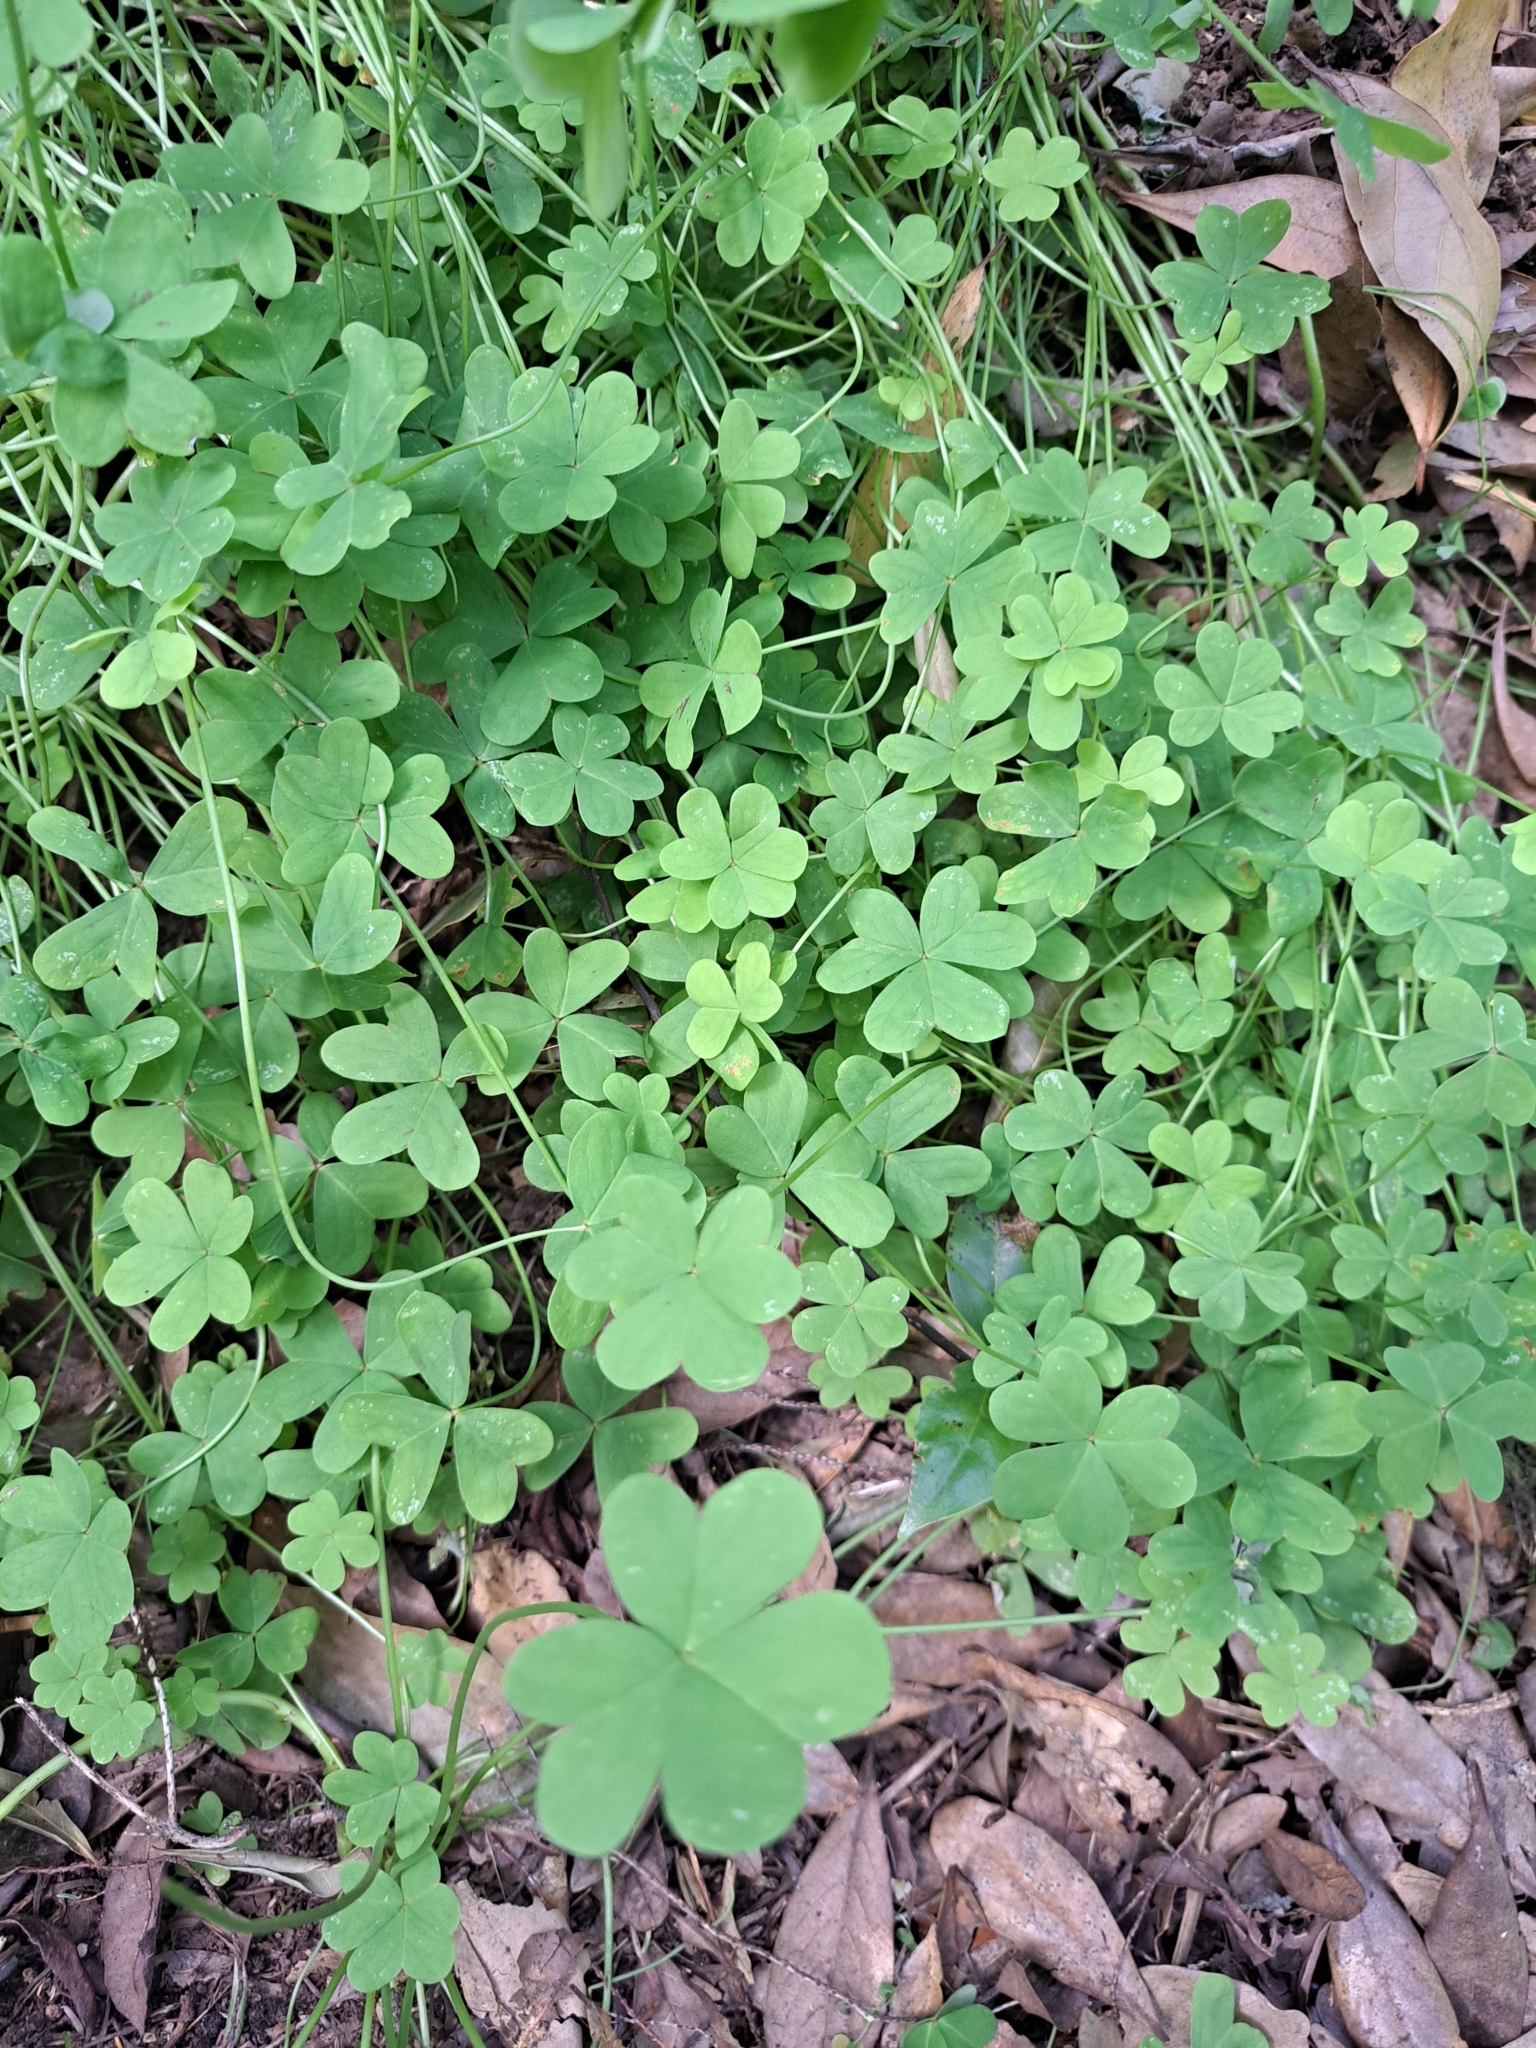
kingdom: Plantae
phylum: Tracheophyta
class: Magnoliopsida
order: Oxalidales
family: Oxalidaceae
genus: Oxalis
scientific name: Oxalis pes-caprae
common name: Bermuda-buttercup
